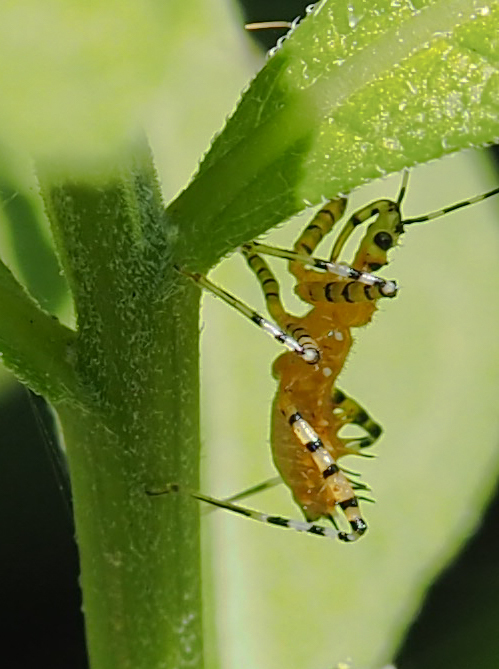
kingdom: Animalia
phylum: Arthropoda
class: Insecta
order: Hemiptera
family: Reduviidae
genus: Pselliopus
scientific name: Pselliopus barberi
